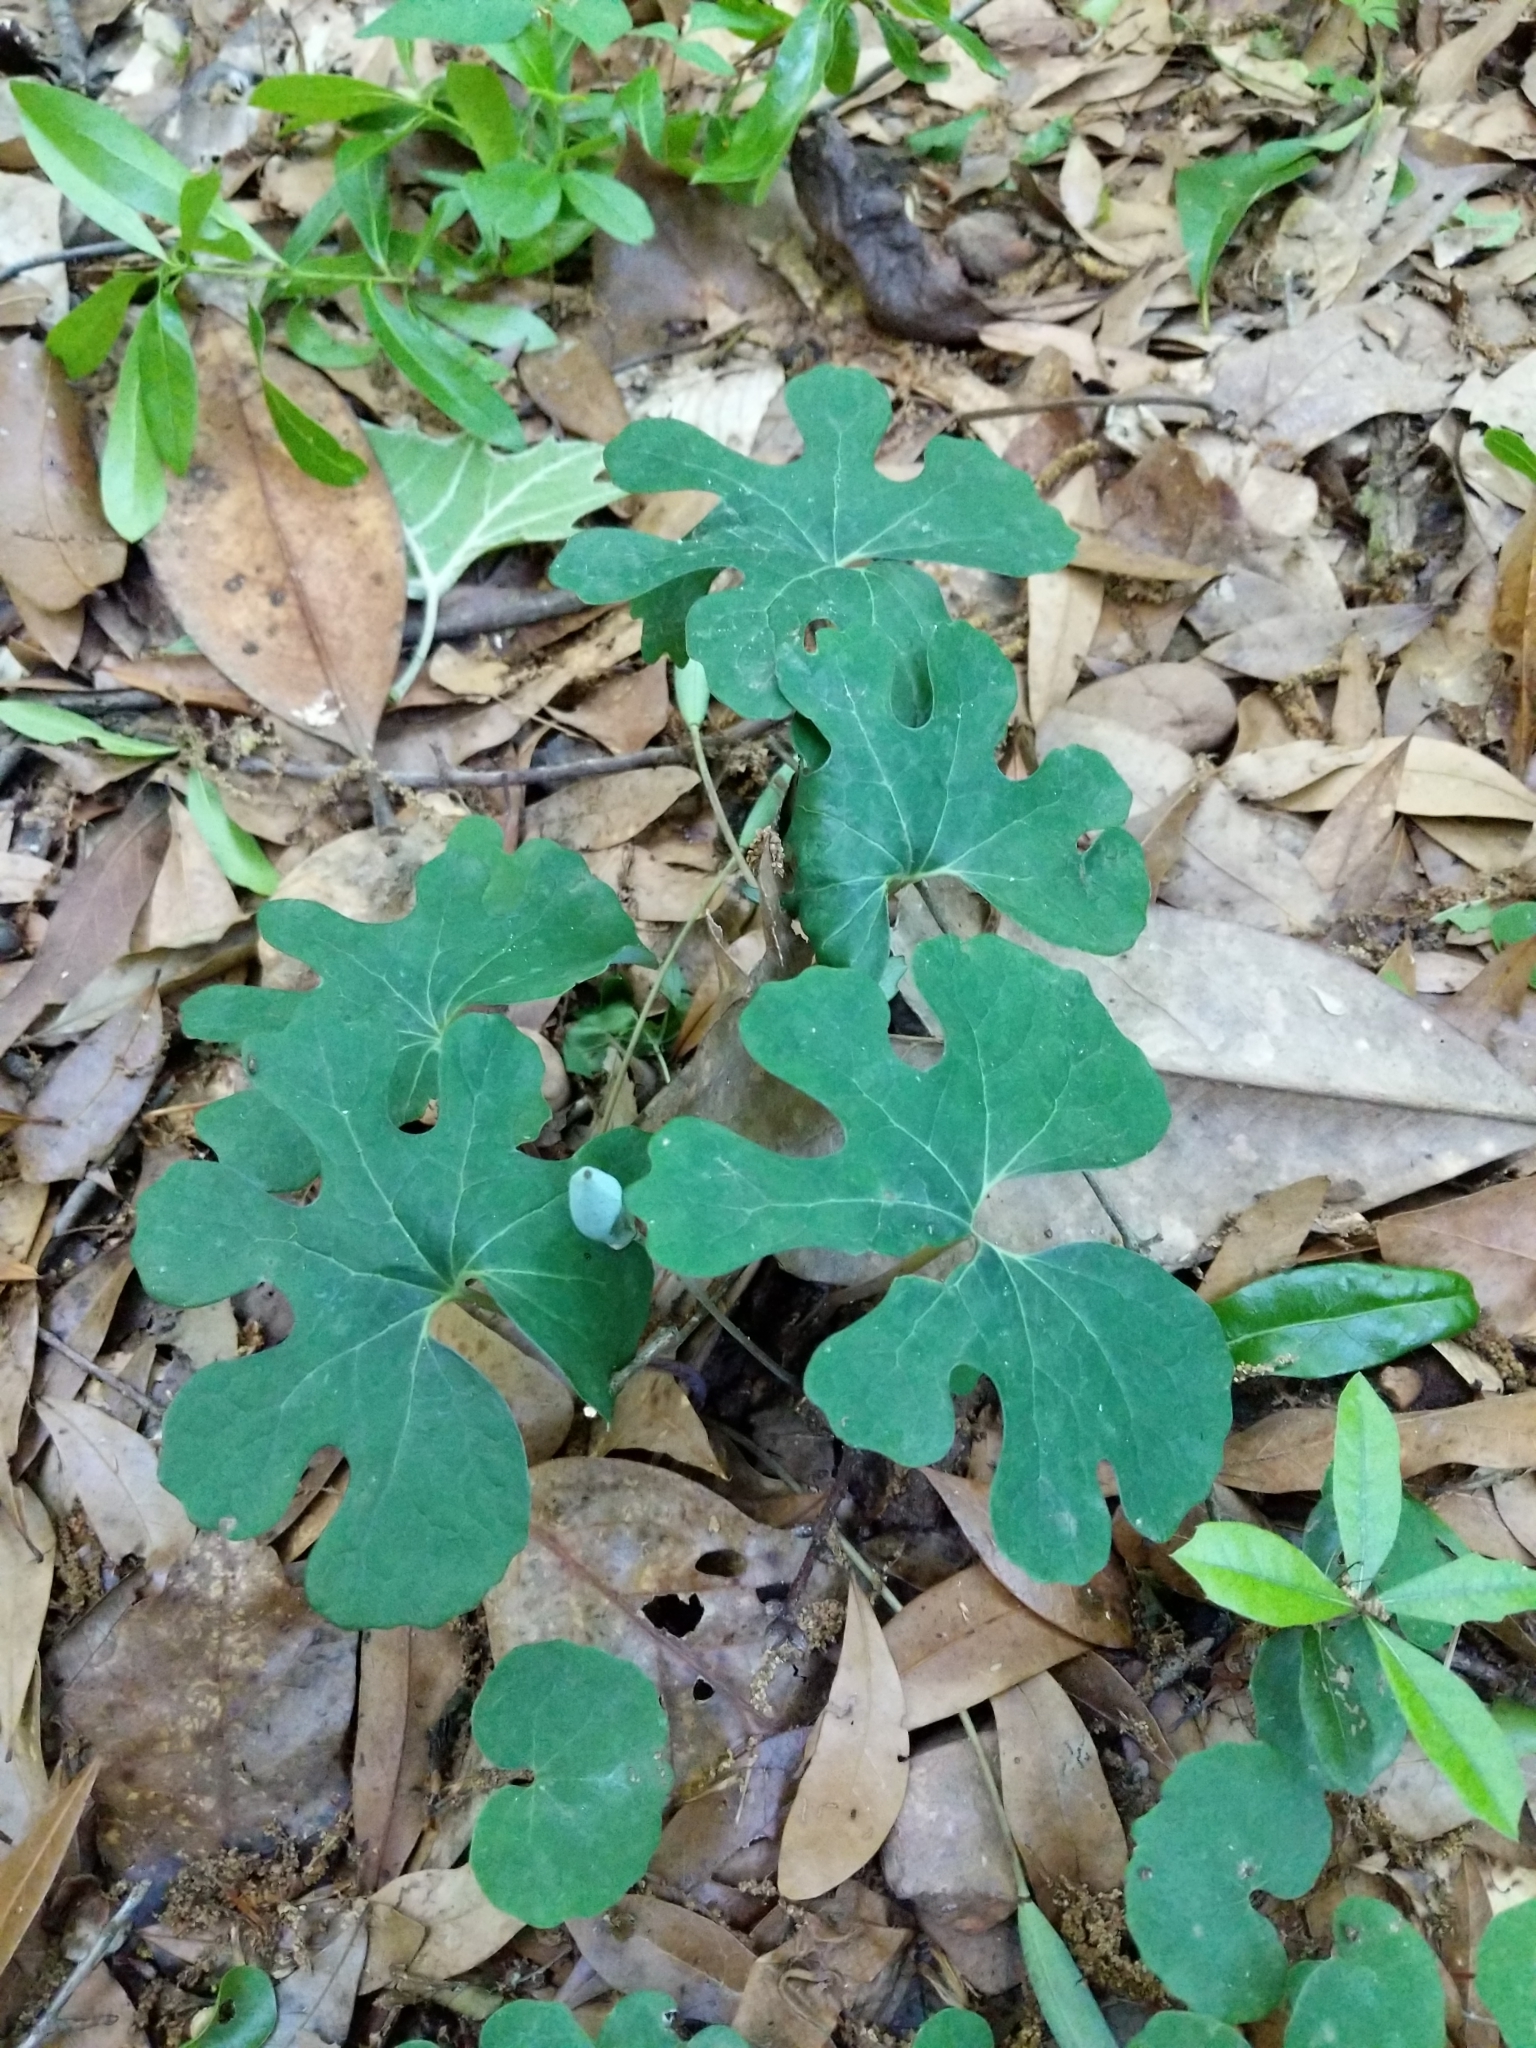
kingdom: Plantae
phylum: Tracheophyta
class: Magnoliopsida
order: Ranunculales
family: Papaveraceae
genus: Sanguinaria
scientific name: Sanguinaria canadensis
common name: Bloodroot
